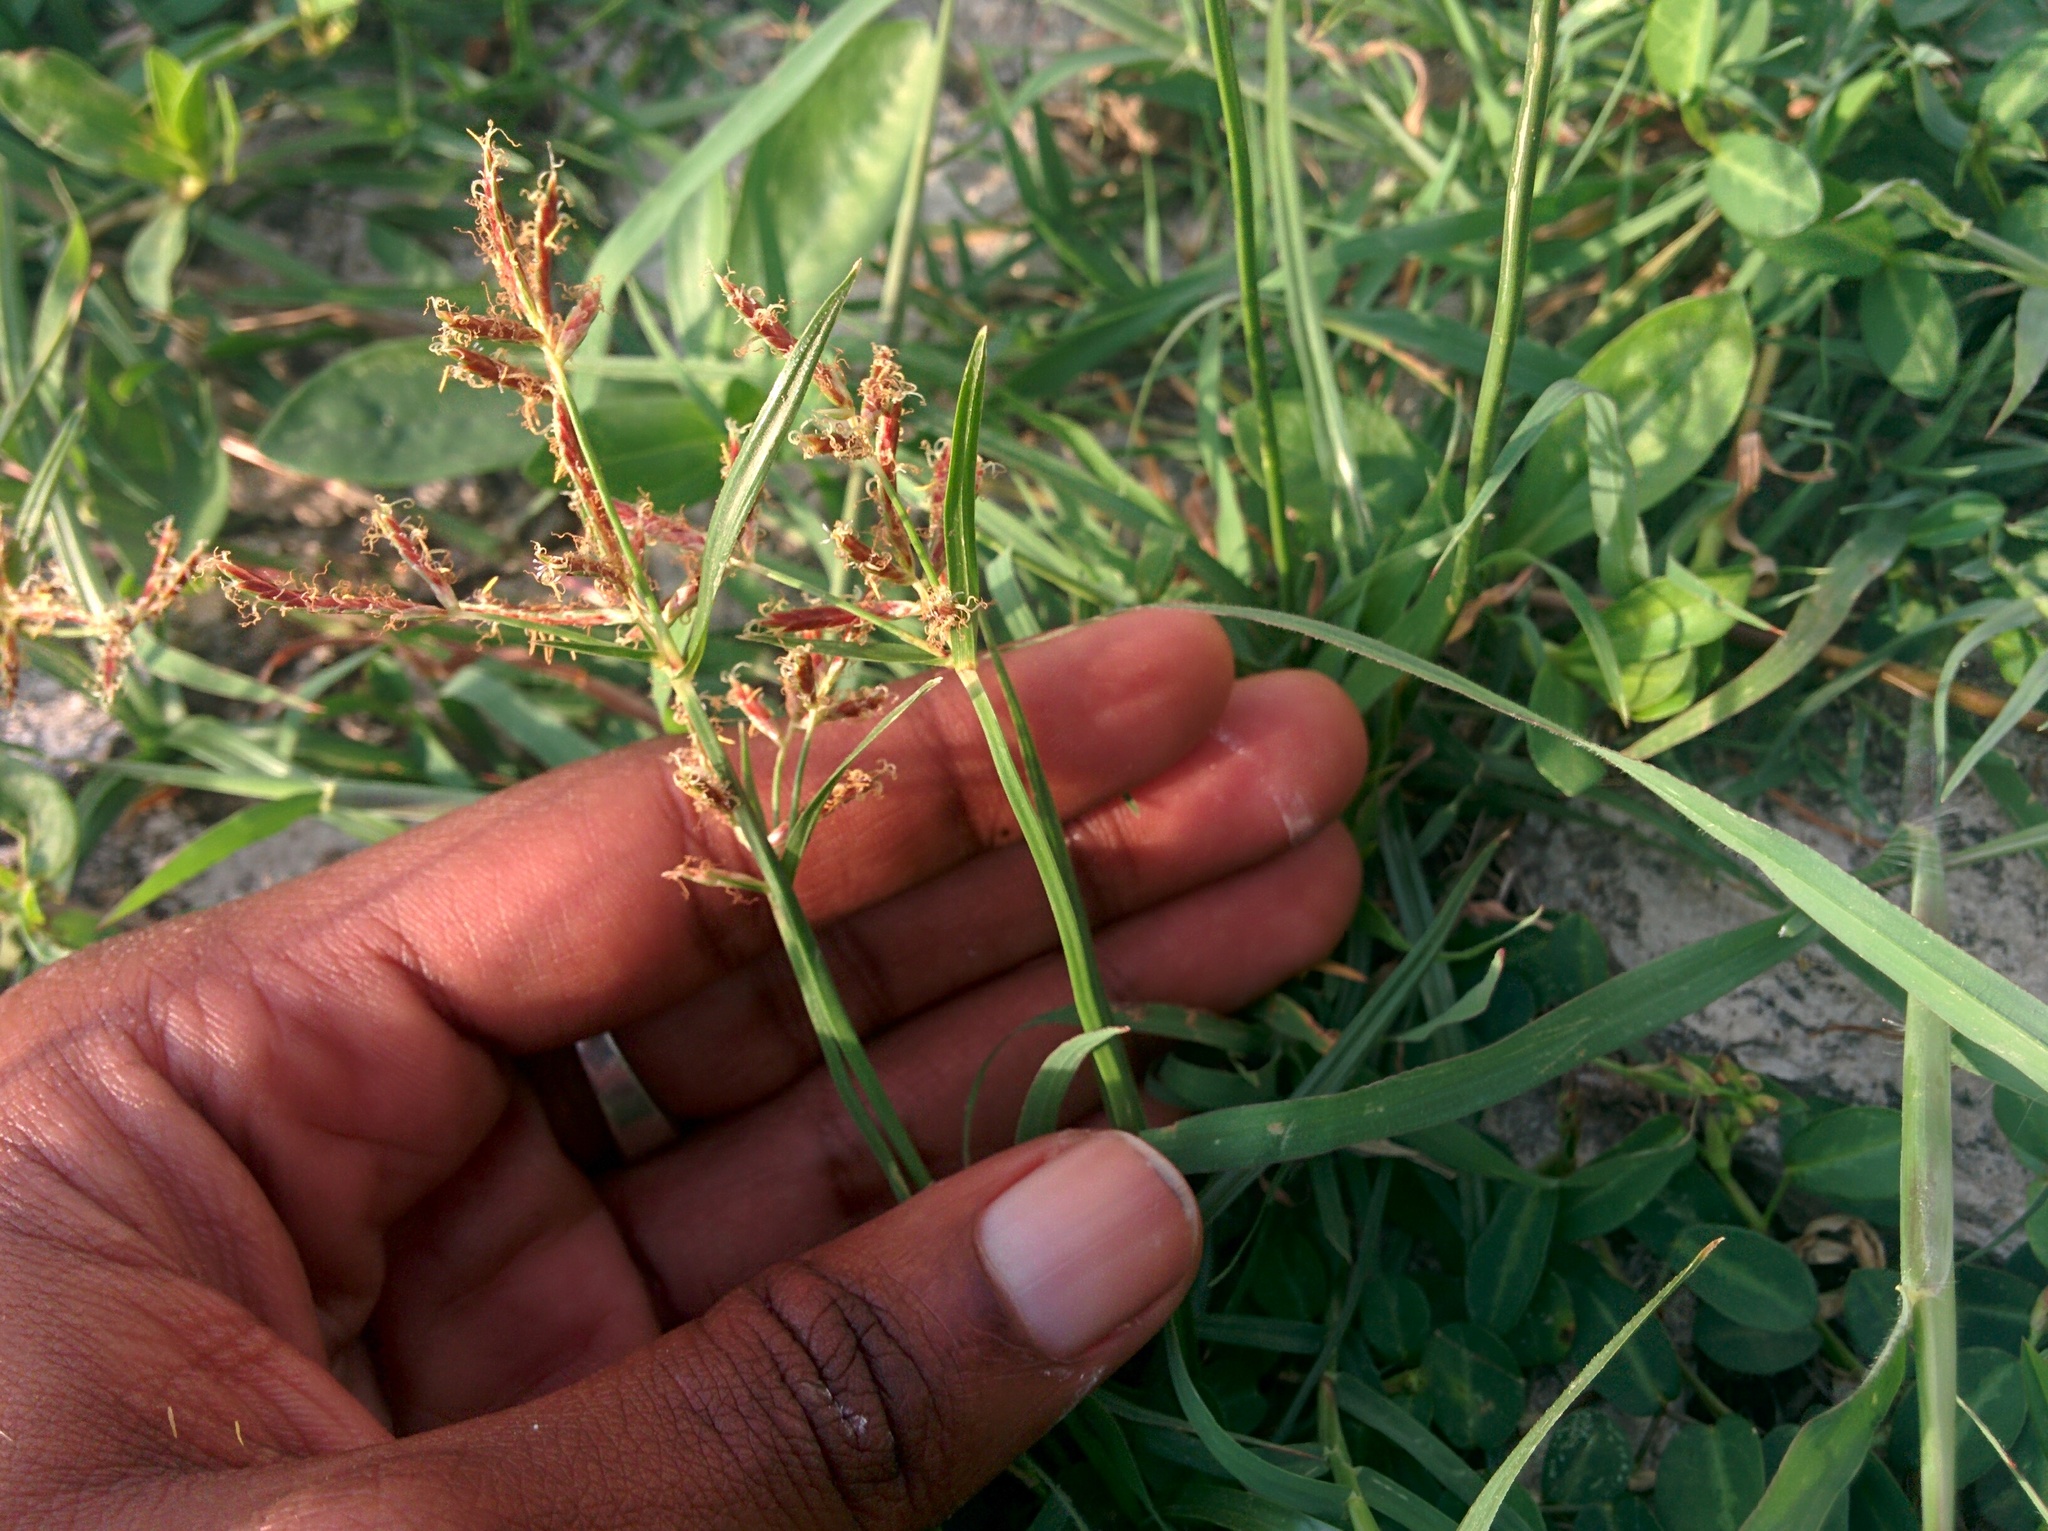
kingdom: Plantae
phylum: Tracheophyta
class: Liliopsida
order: Poales
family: Cyperaceae
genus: Cyperus
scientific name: Cyperus rotundus
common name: Nutgrass
